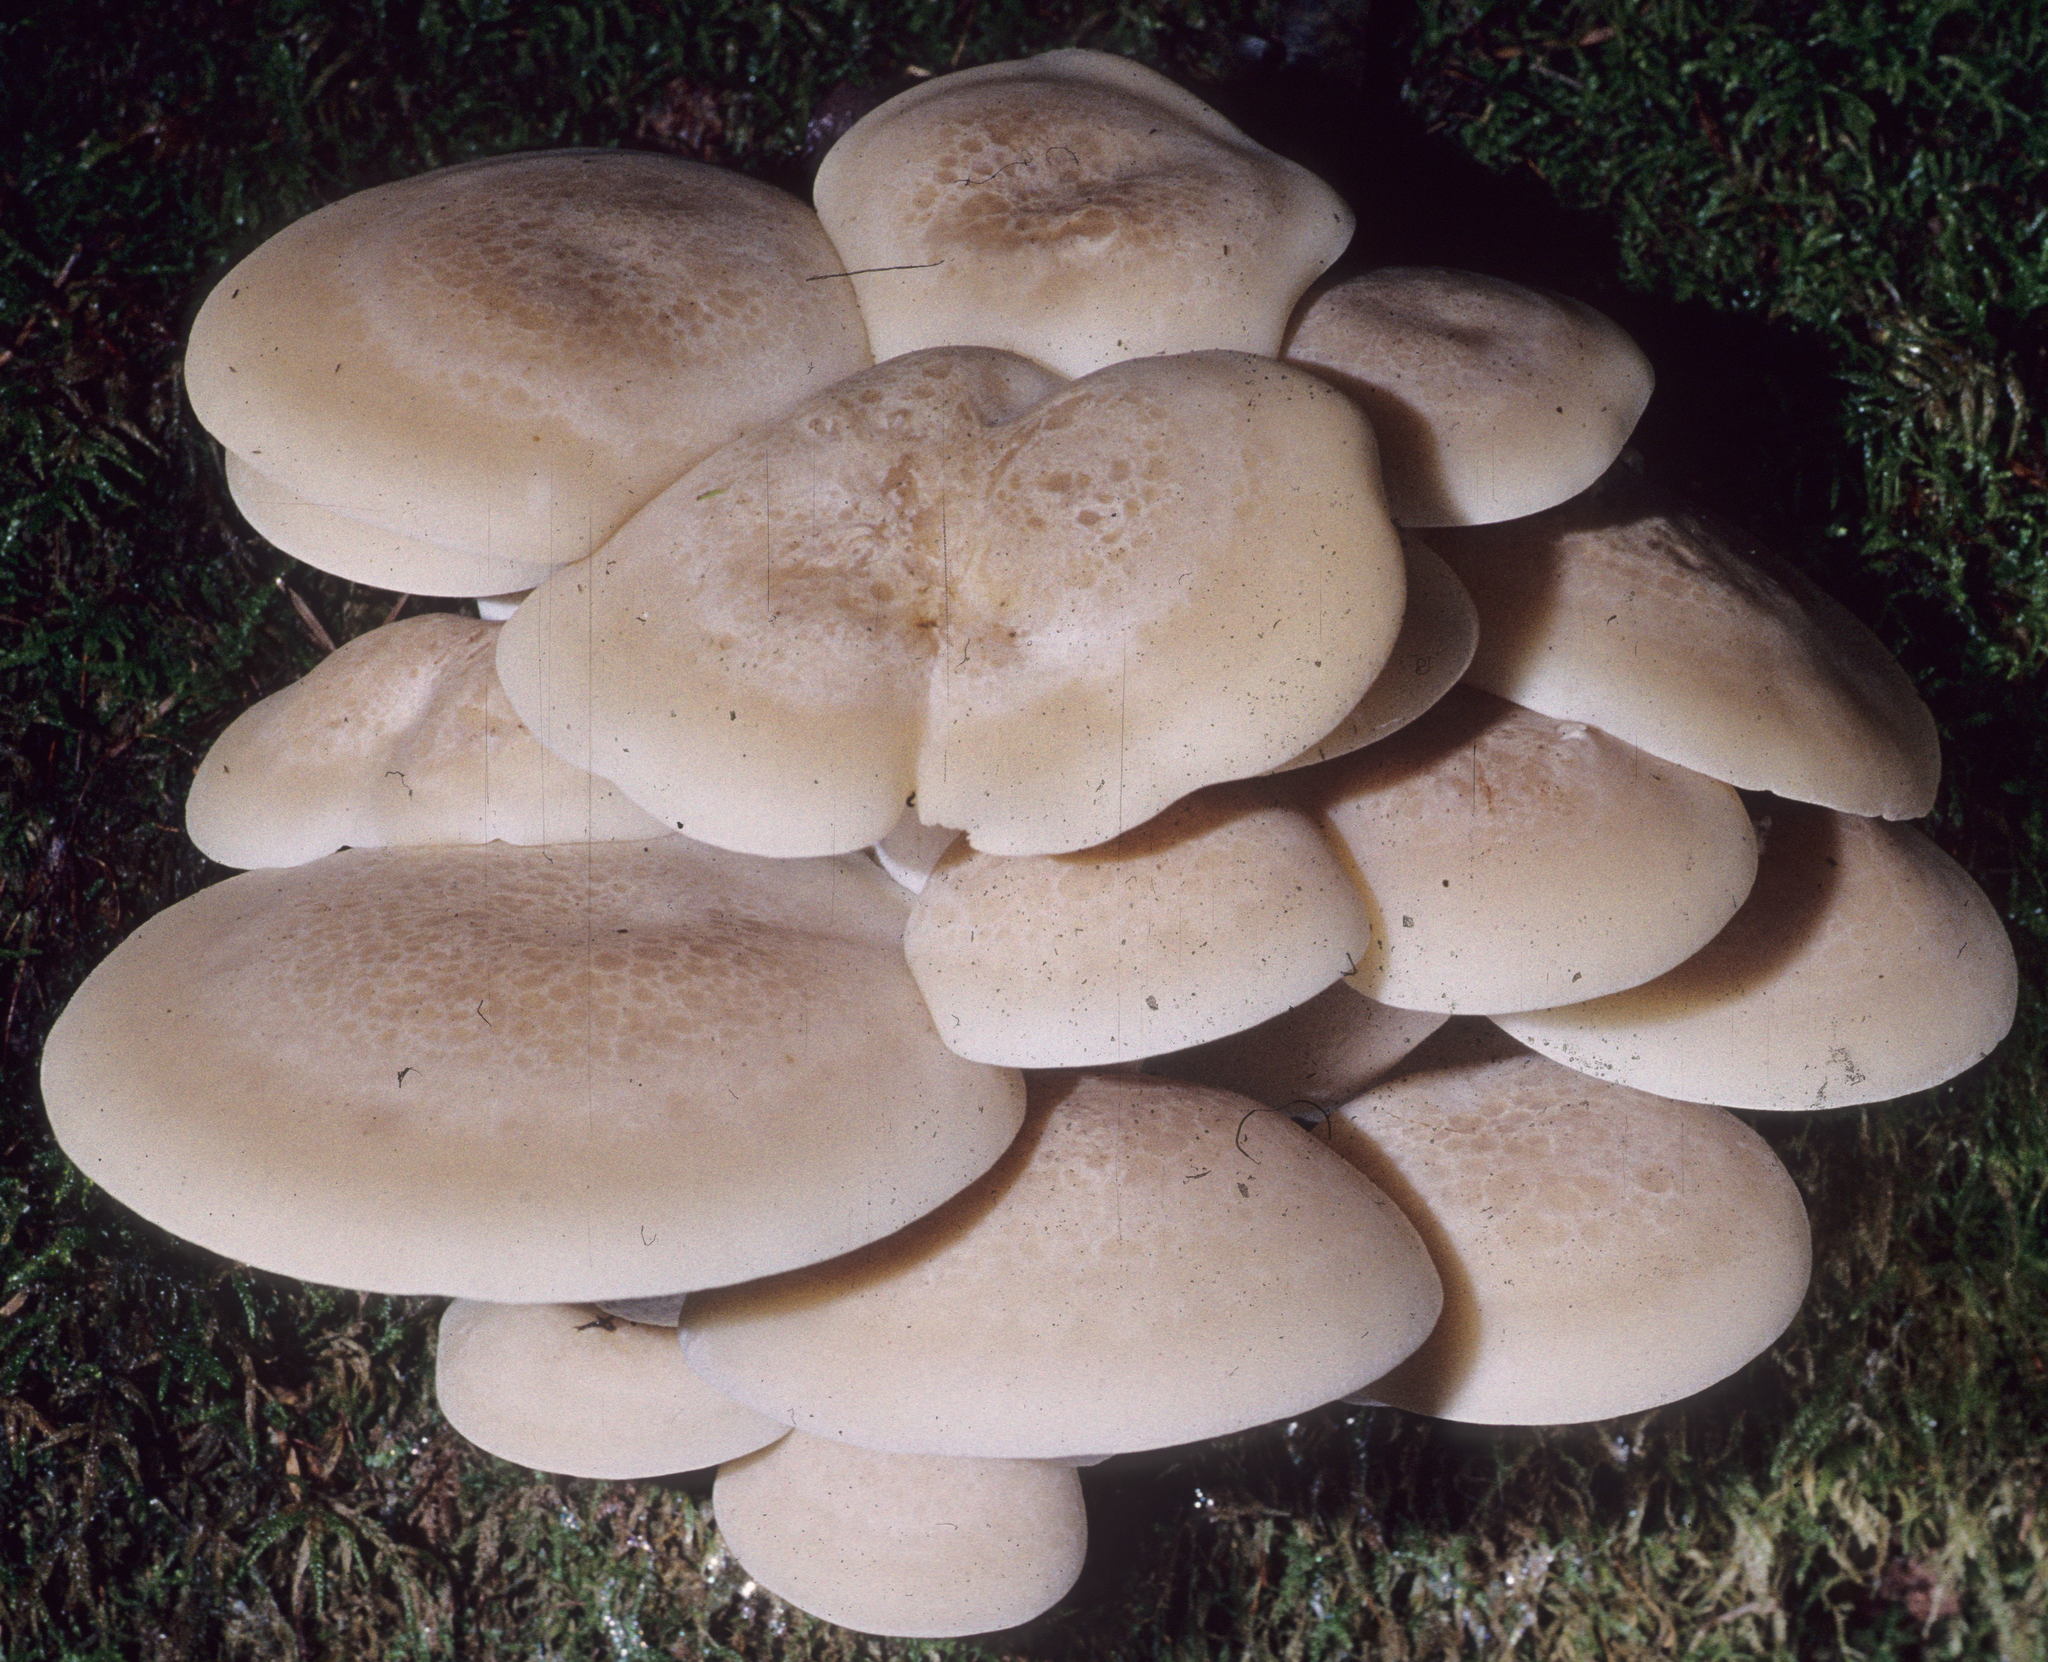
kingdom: Fungi
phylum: Basidiomycota
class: Agaricomycetes
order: Agaricales
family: Lyophyllaceae
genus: Hypsizygus
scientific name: Hypsizygus marmoreus
